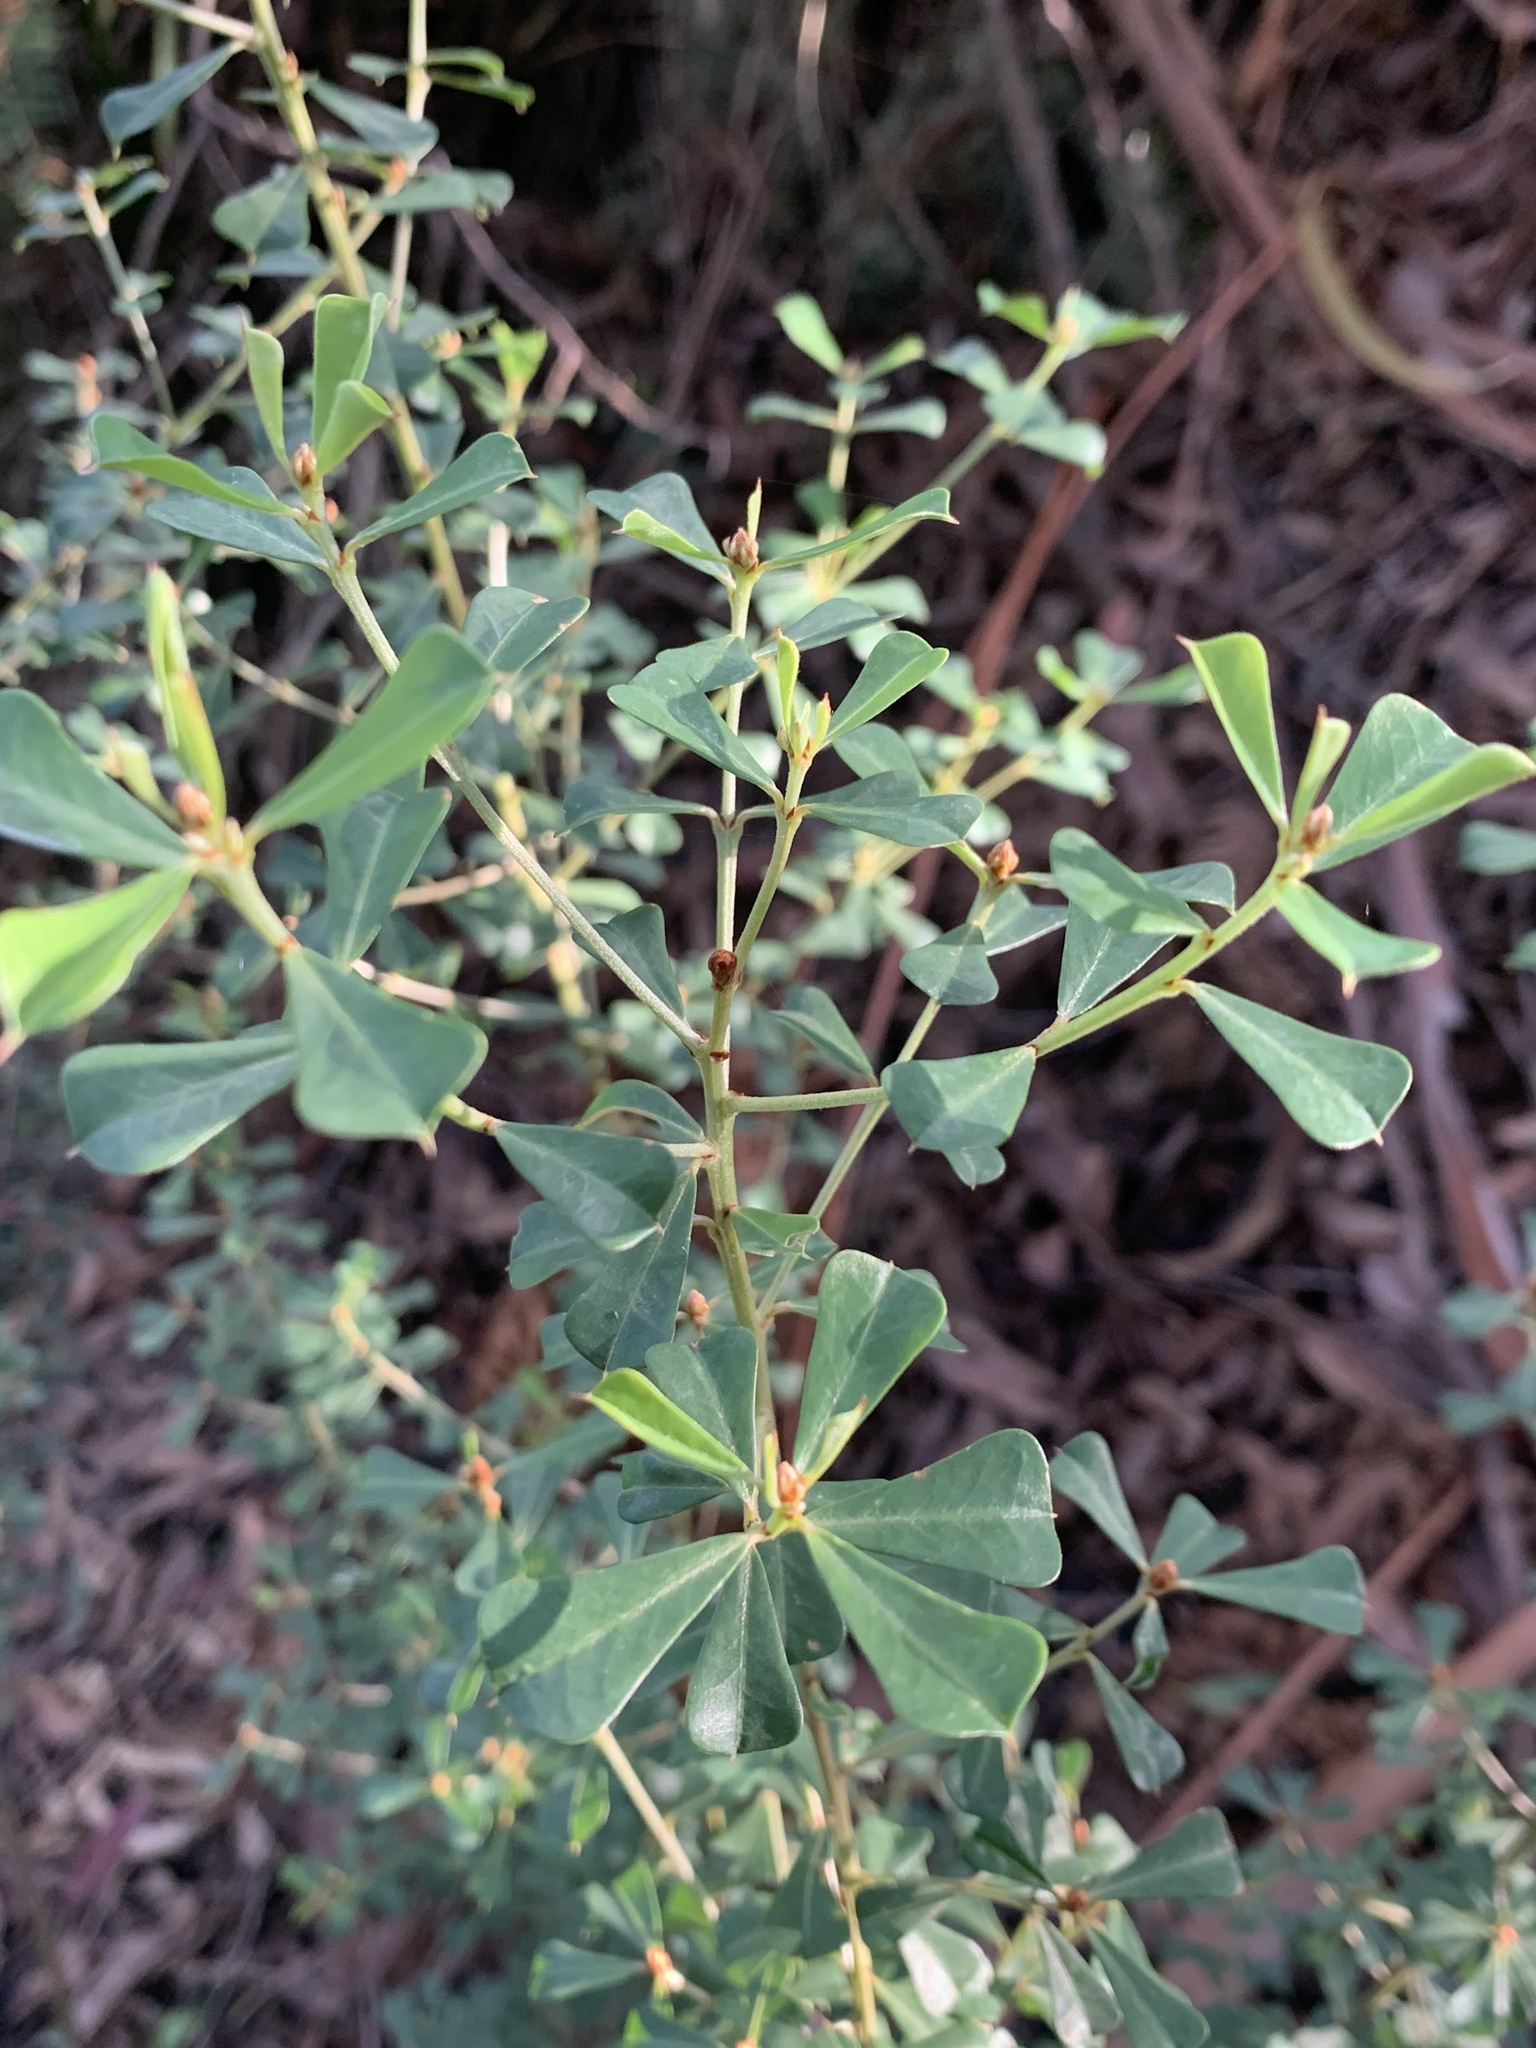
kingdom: Plantae
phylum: Tracheophyta
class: Magnoliopsida
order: Fabales
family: Fabaceae
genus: Pultenaea
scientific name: Pultenaea daphnoides
